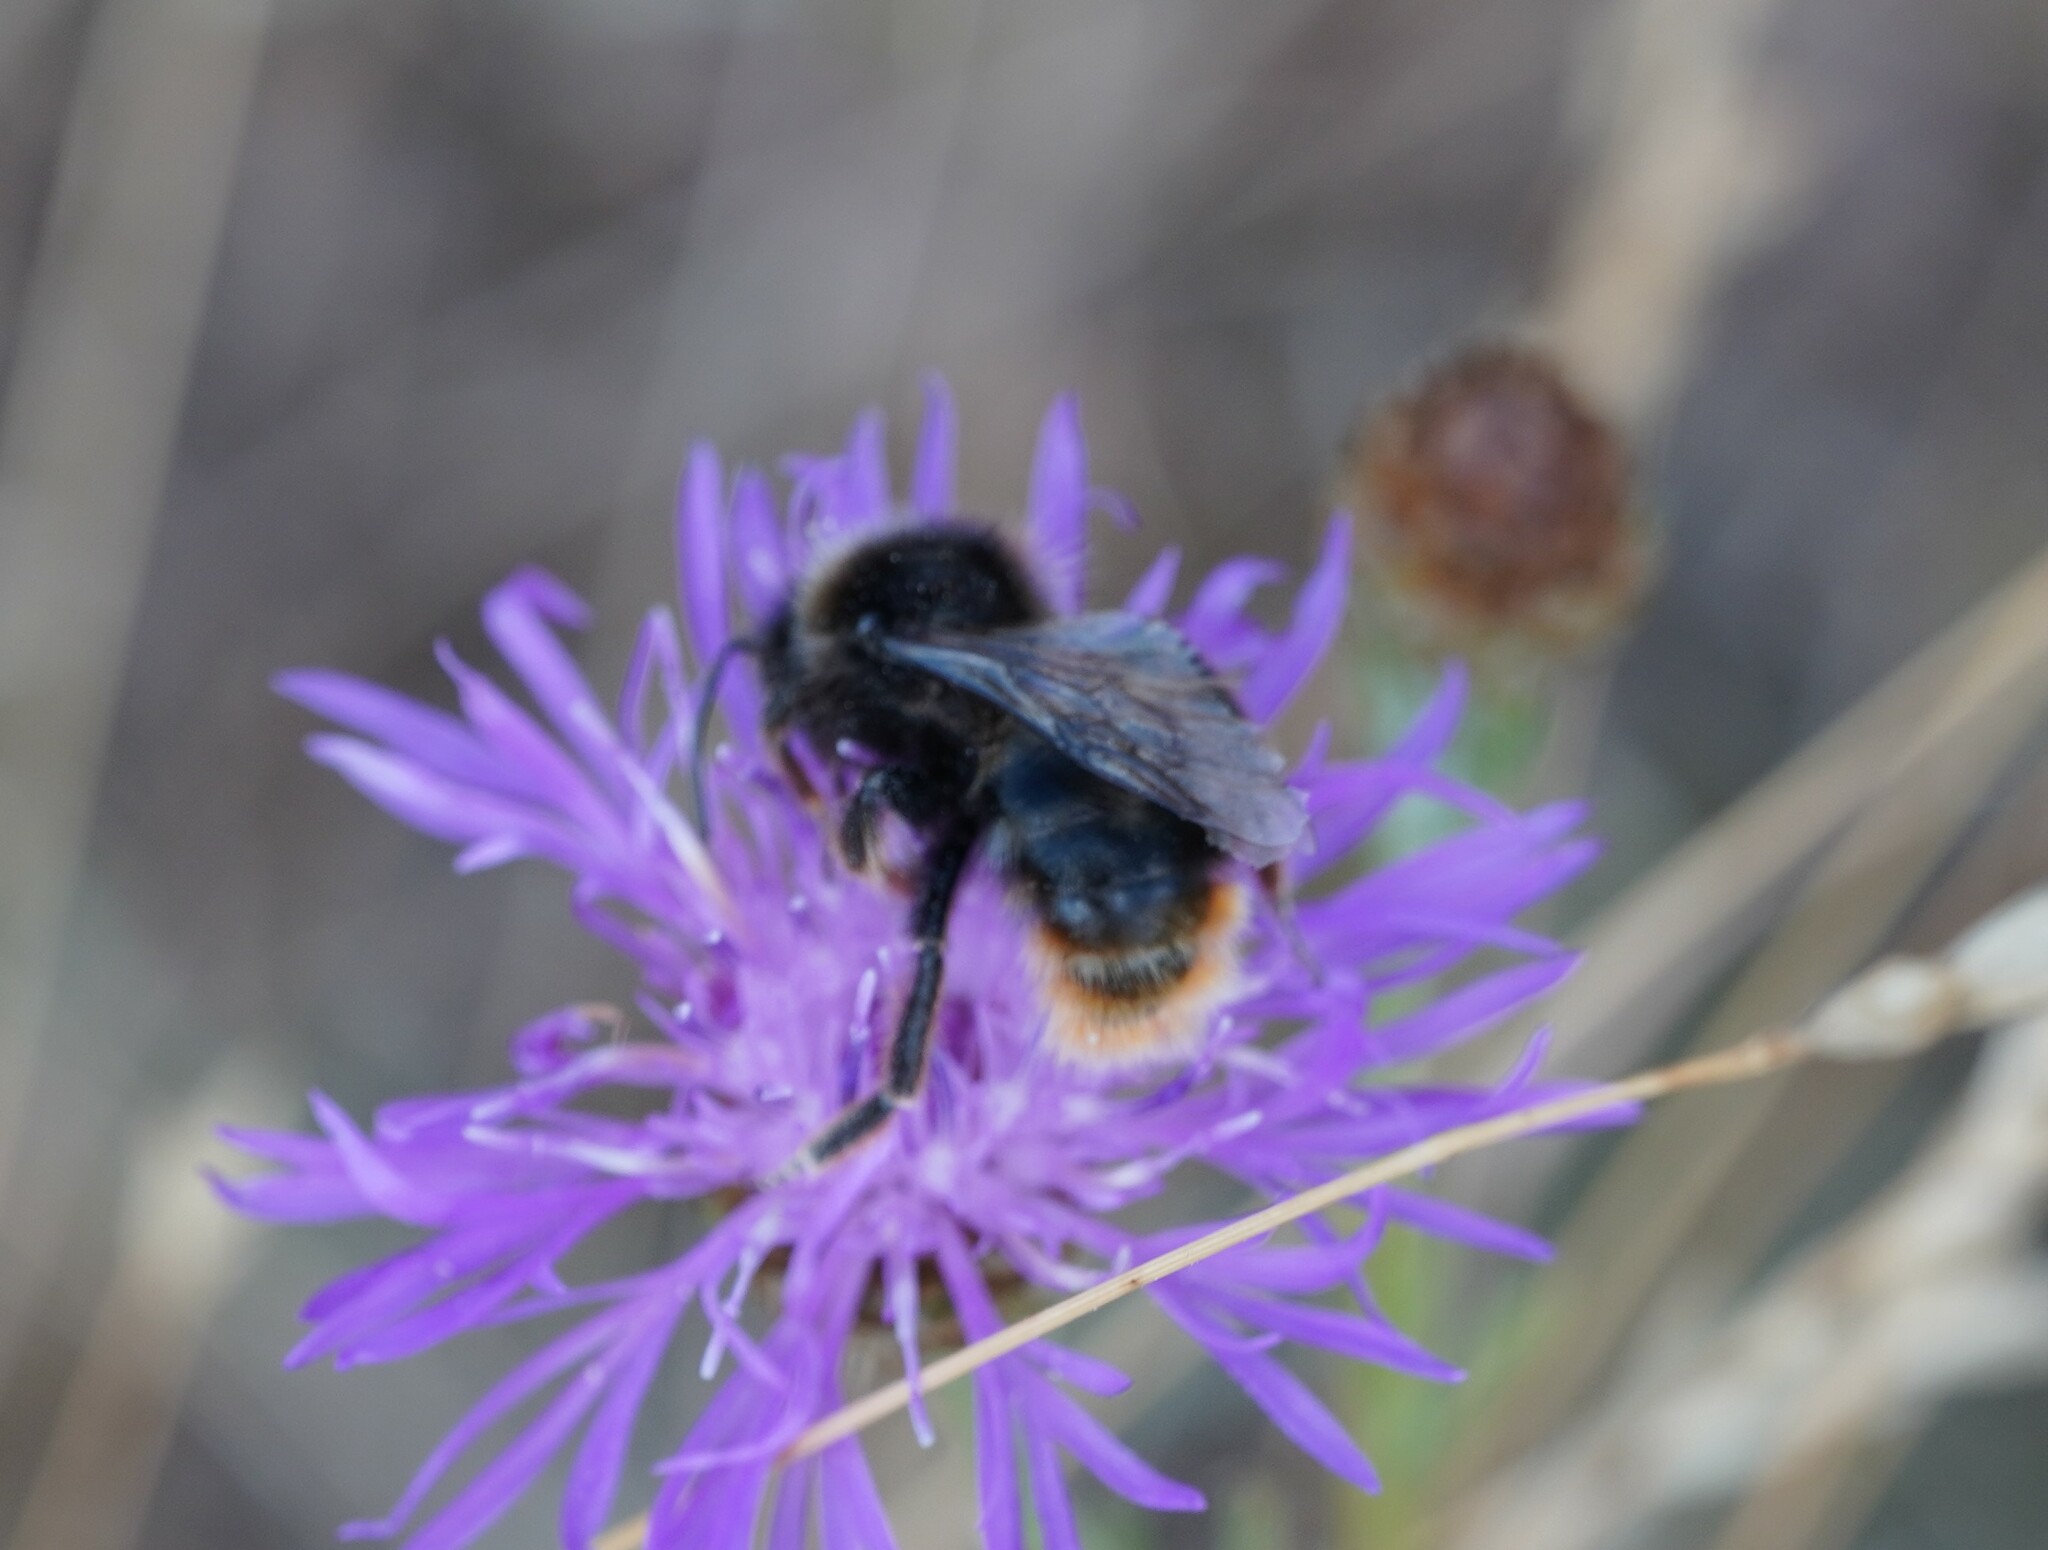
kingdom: Animalia
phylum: Arthropoda
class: Insecta
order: Hymenoptera
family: Apidae
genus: Bombus
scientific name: Bombus rupestris
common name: Hill cuckoo-bee
